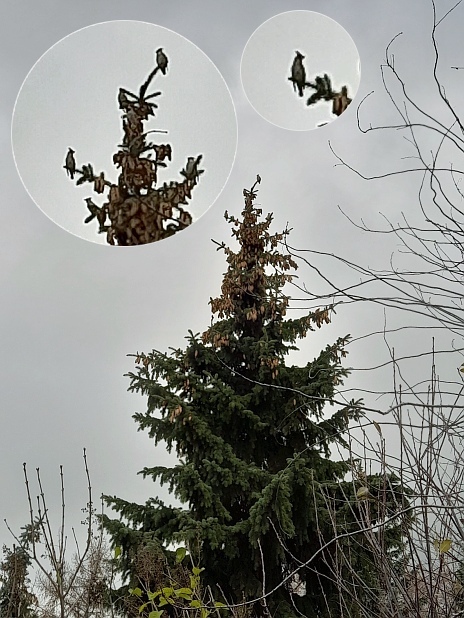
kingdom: Animalia
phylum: Chordata
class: Aves
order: Passeriformes
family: Bombycillidae
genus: Bombycilla
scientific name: Bombycilla garrulus
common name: Bohemian waxwing
